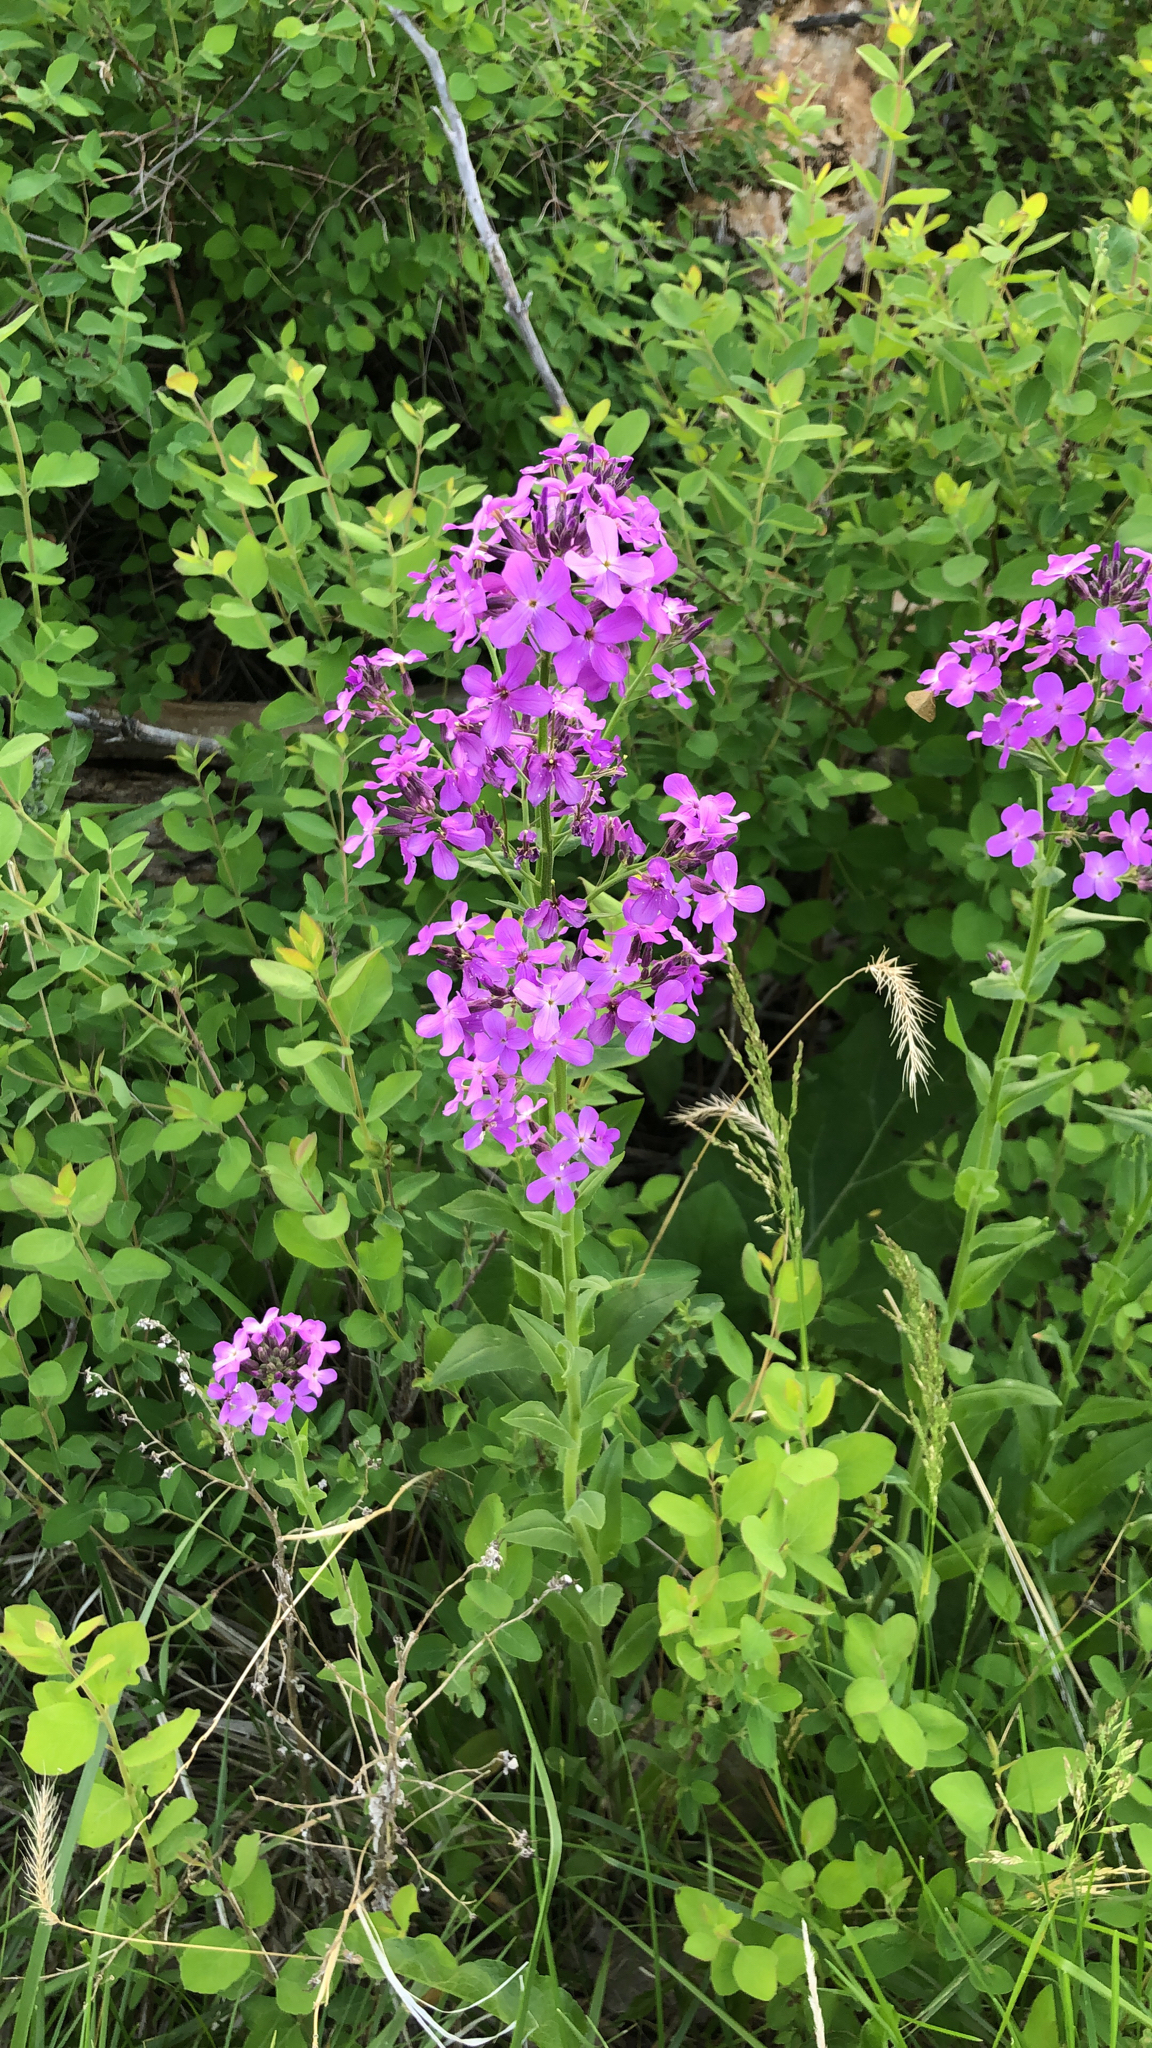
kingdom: Plantae
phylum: Tracheophyta
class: Magnoliopsida
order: Brassicales
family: Brassicaceae
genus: Hesperis
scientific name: Hesperis matronalis
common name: Dame's-violet
